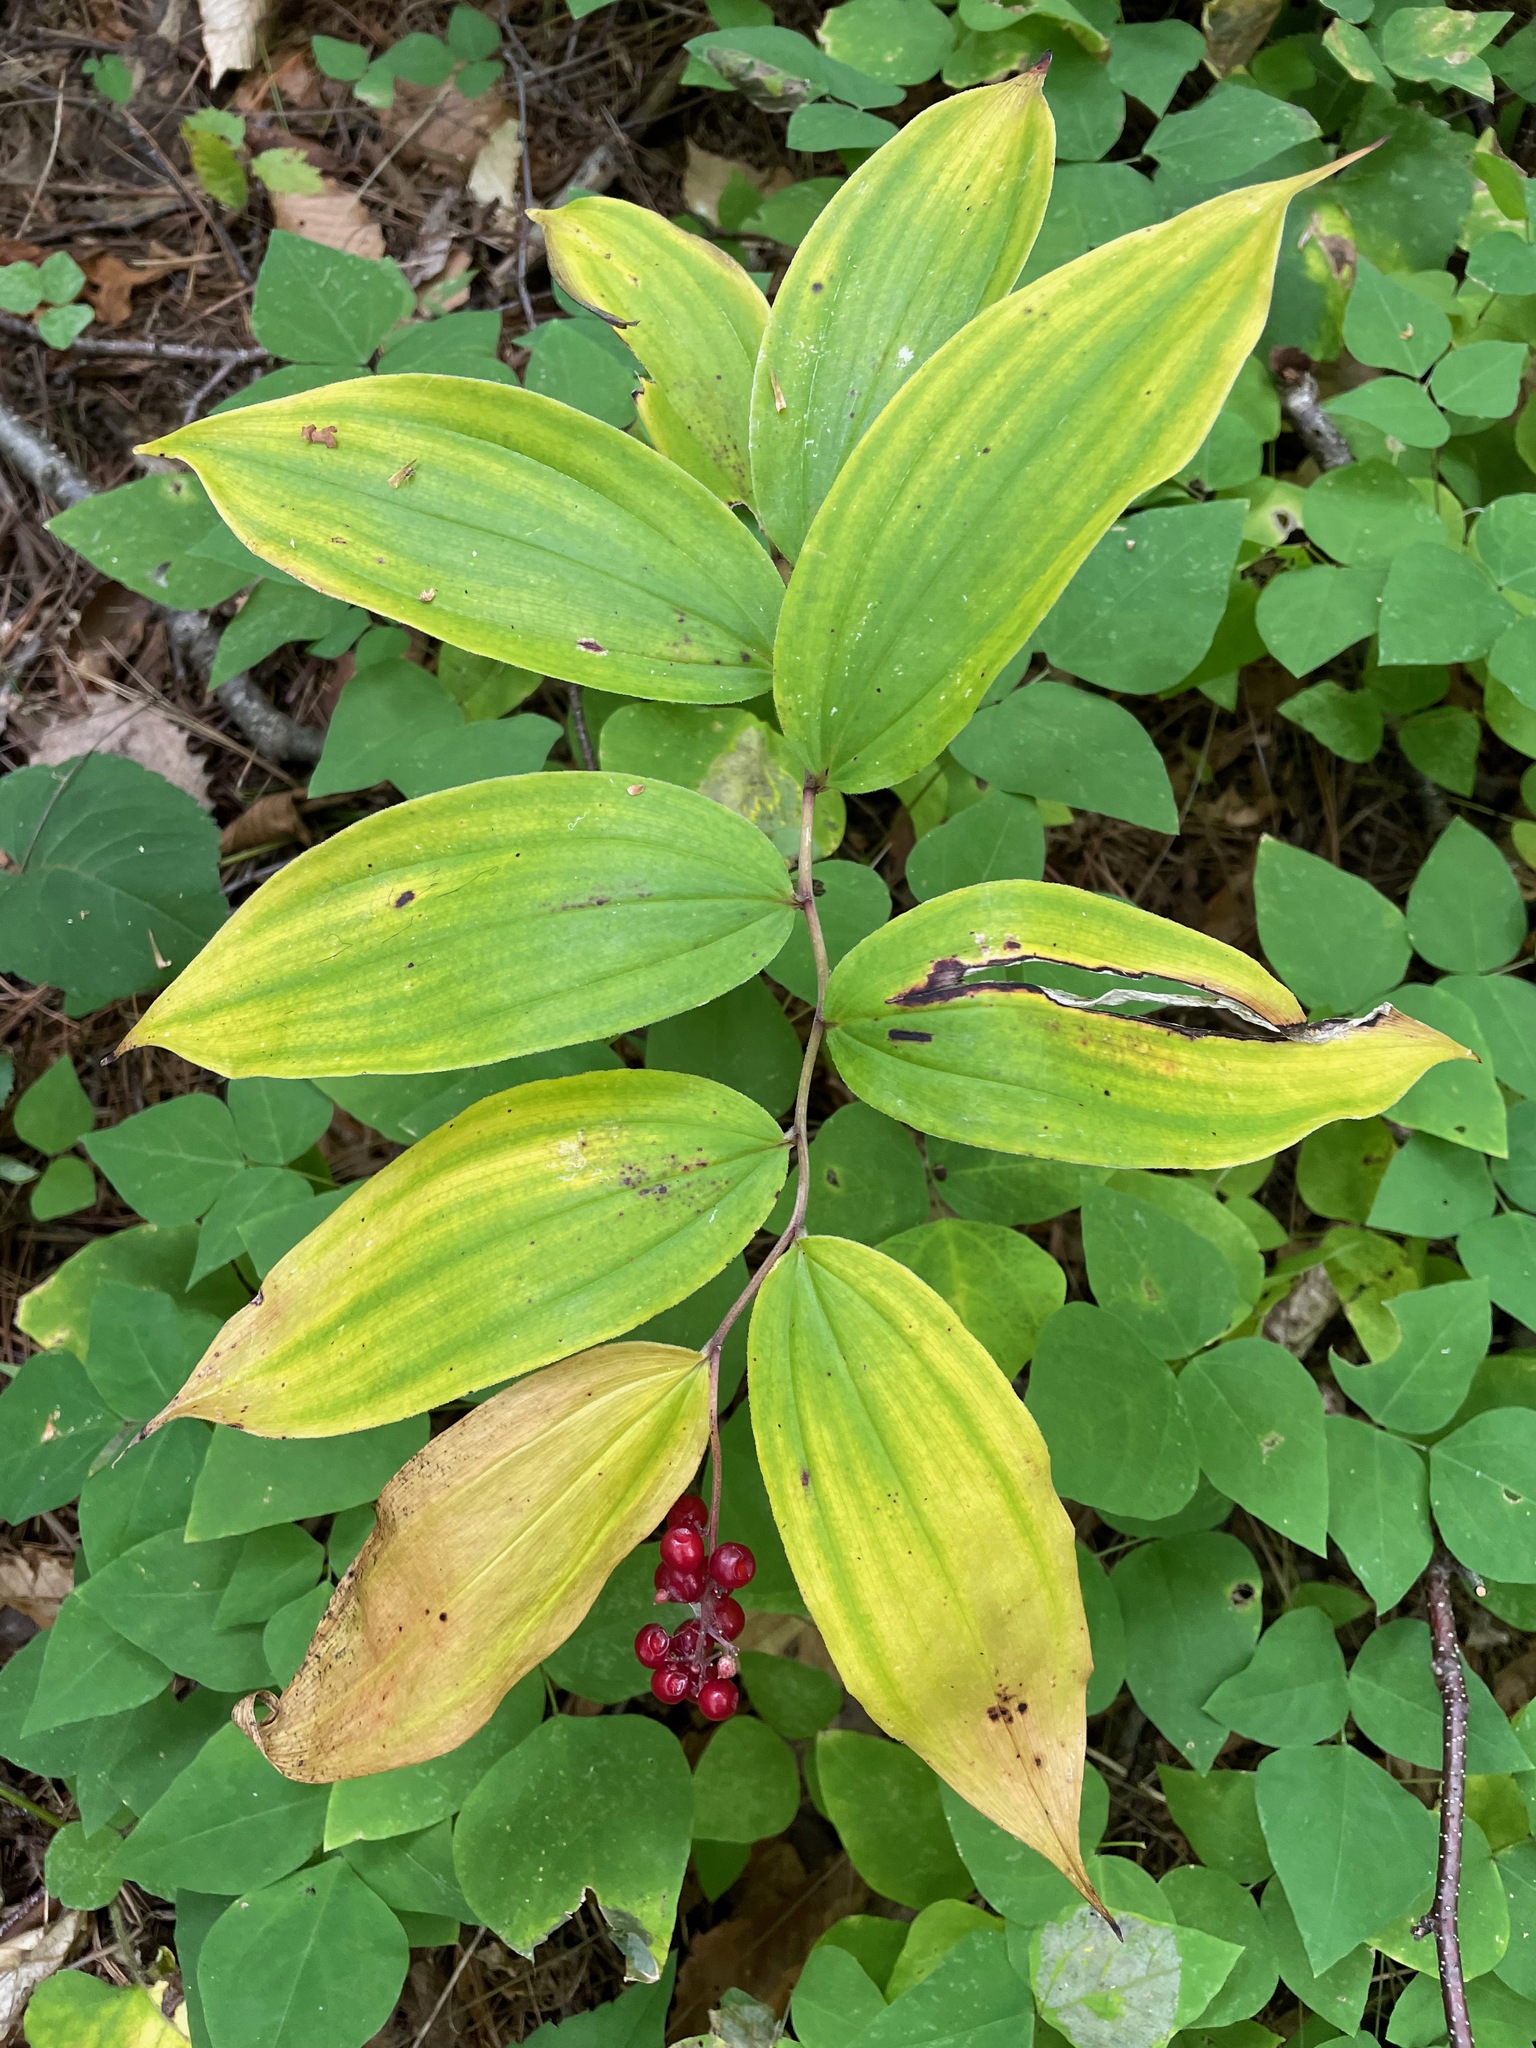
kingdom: Plantae
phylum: Tracheophyta
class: Liliopsida
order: Asparagales
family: Asparagaceae
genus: Maianthemum
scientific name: Maianthemum racemosum
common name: False spikenard
